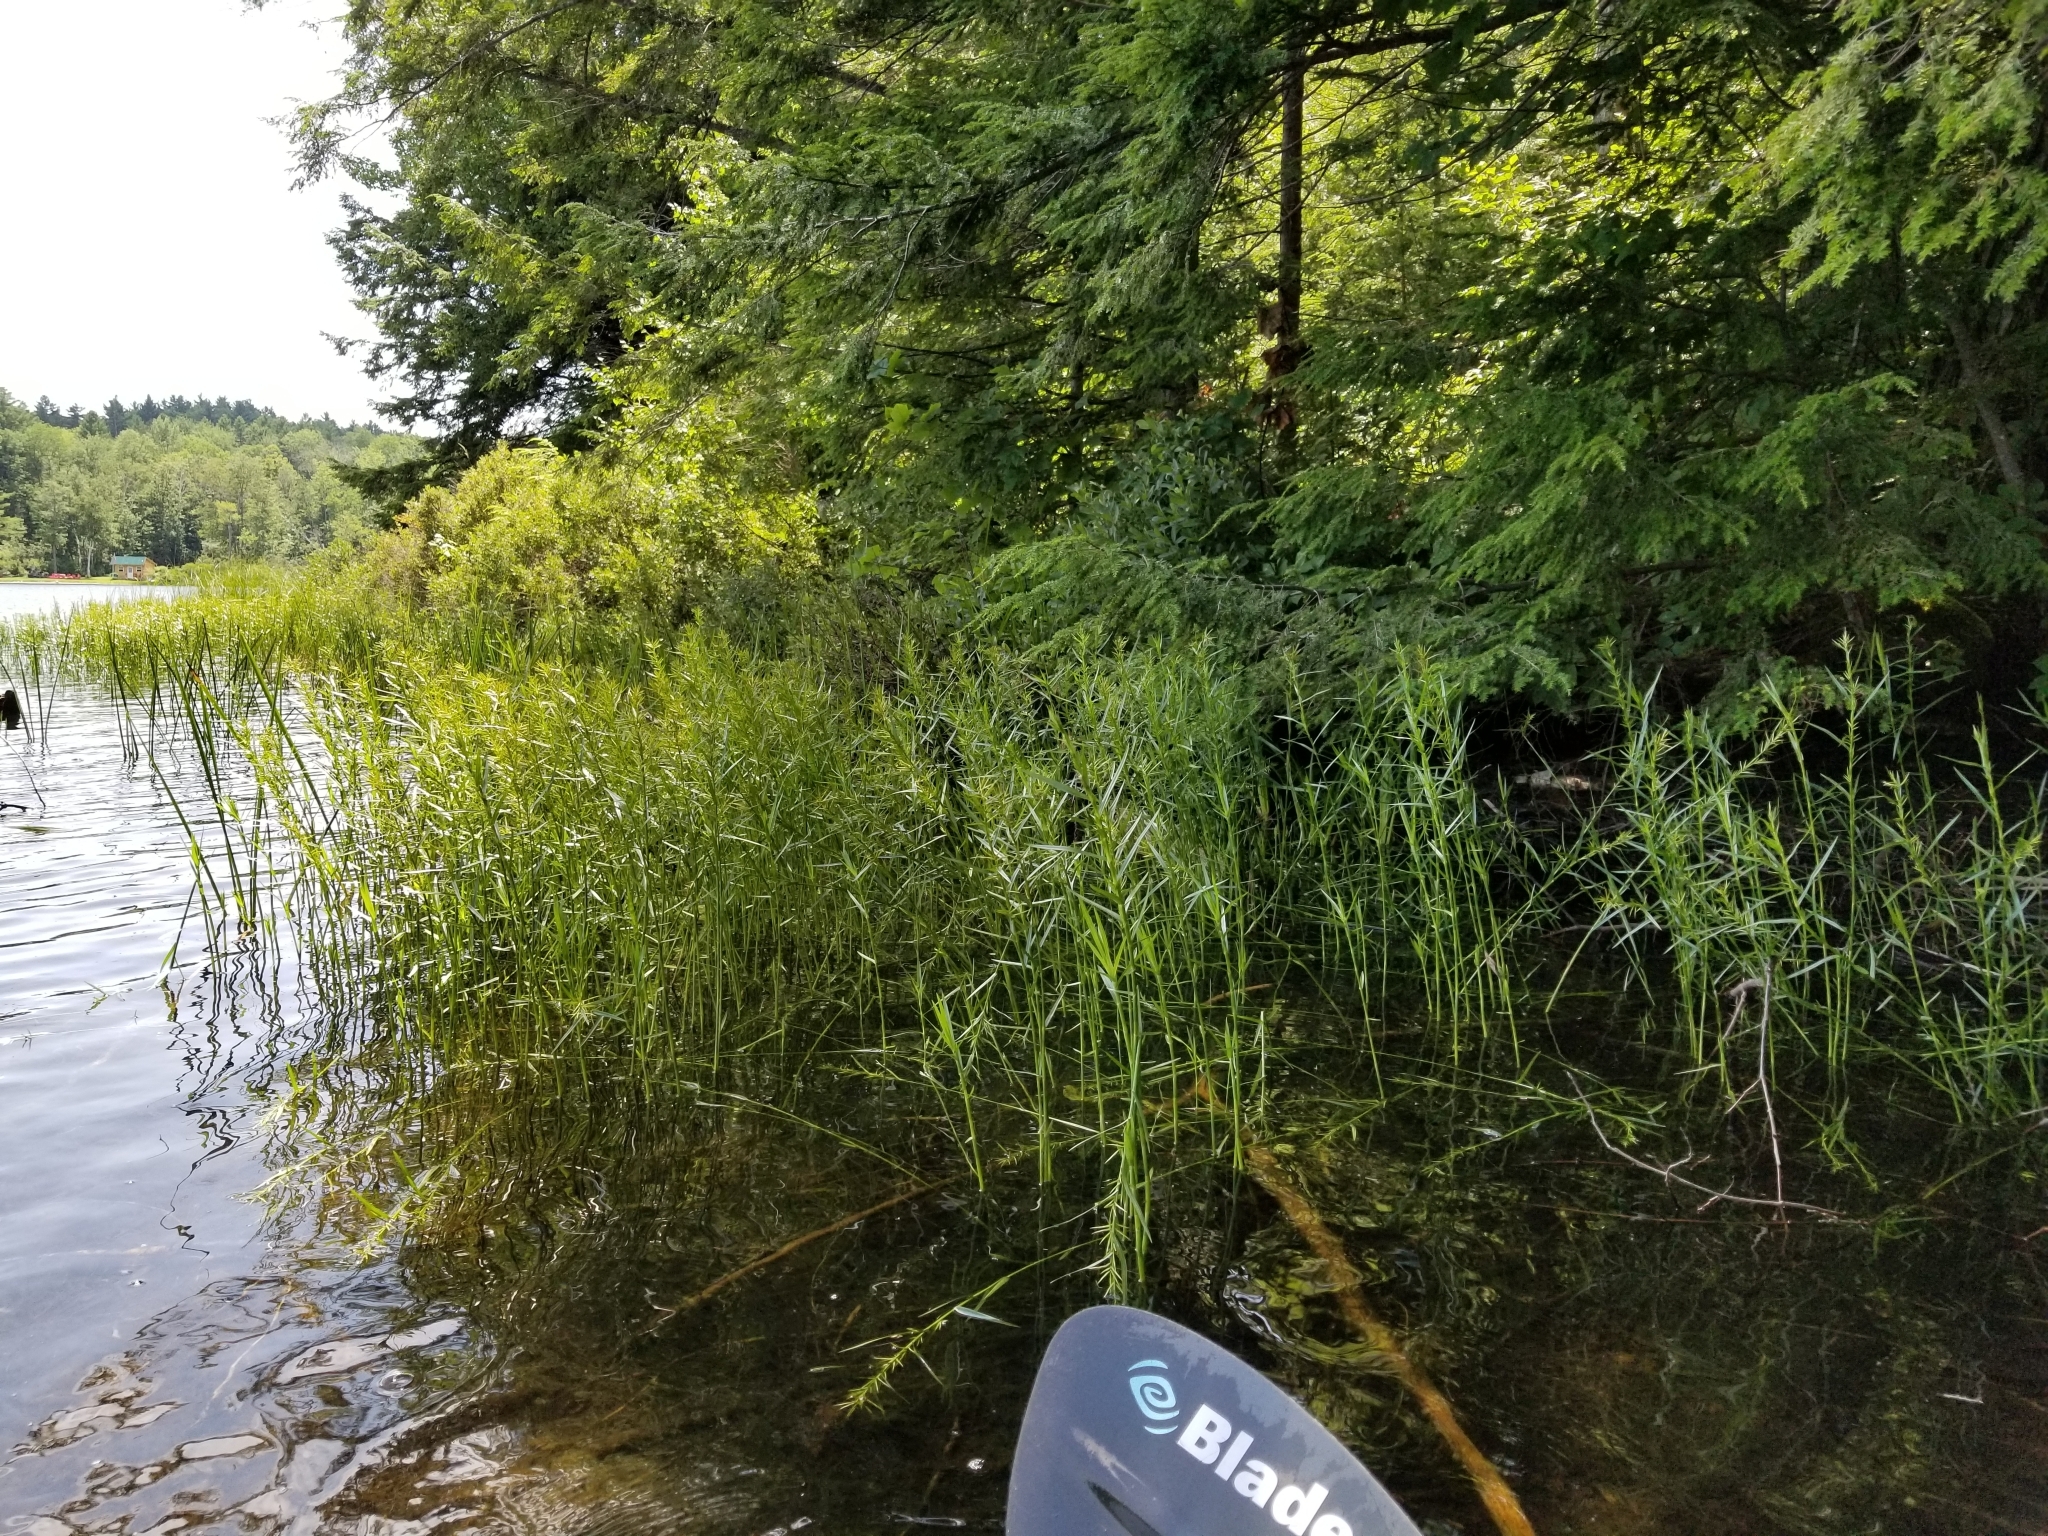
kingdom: Plantae
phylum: Tracheophyta
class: Liliopsida
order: Poales
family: Cyperaceae
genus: Dulichium
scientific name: Dulichium arundinaceum
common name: Three-way sedge
